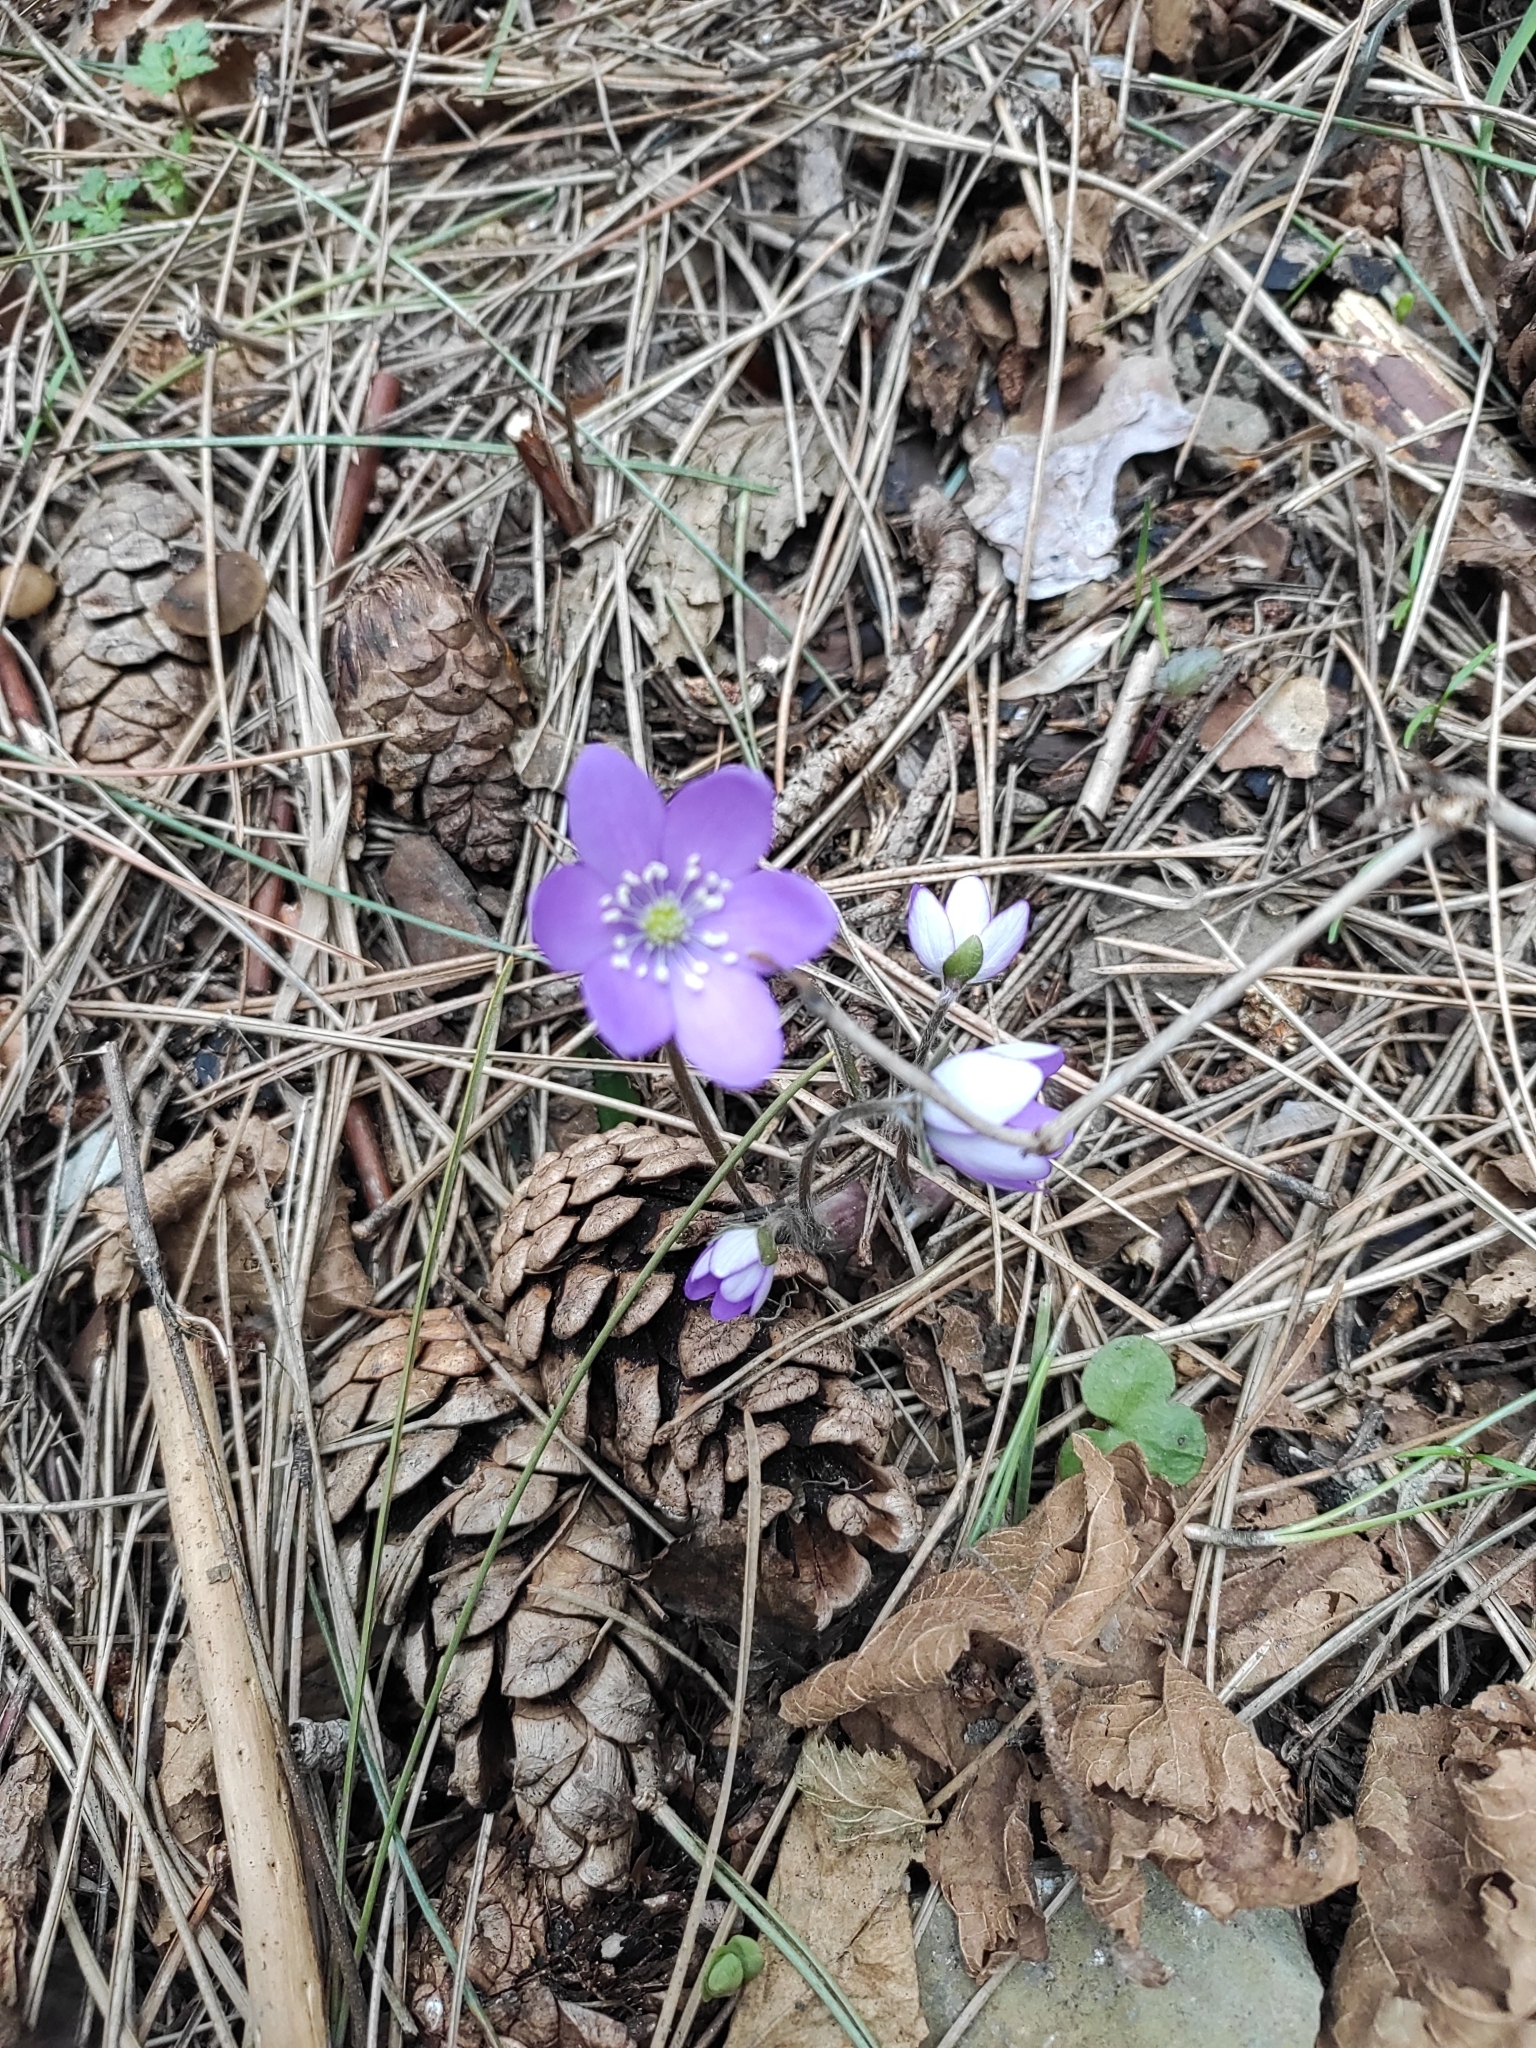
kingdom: Plantae
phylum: Tracheophyta
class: Magnoliopsida
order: Ranunculales
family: Ranunculaceae
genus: Hepatica
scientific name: Hepatica nobilis
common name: Liverleaf
